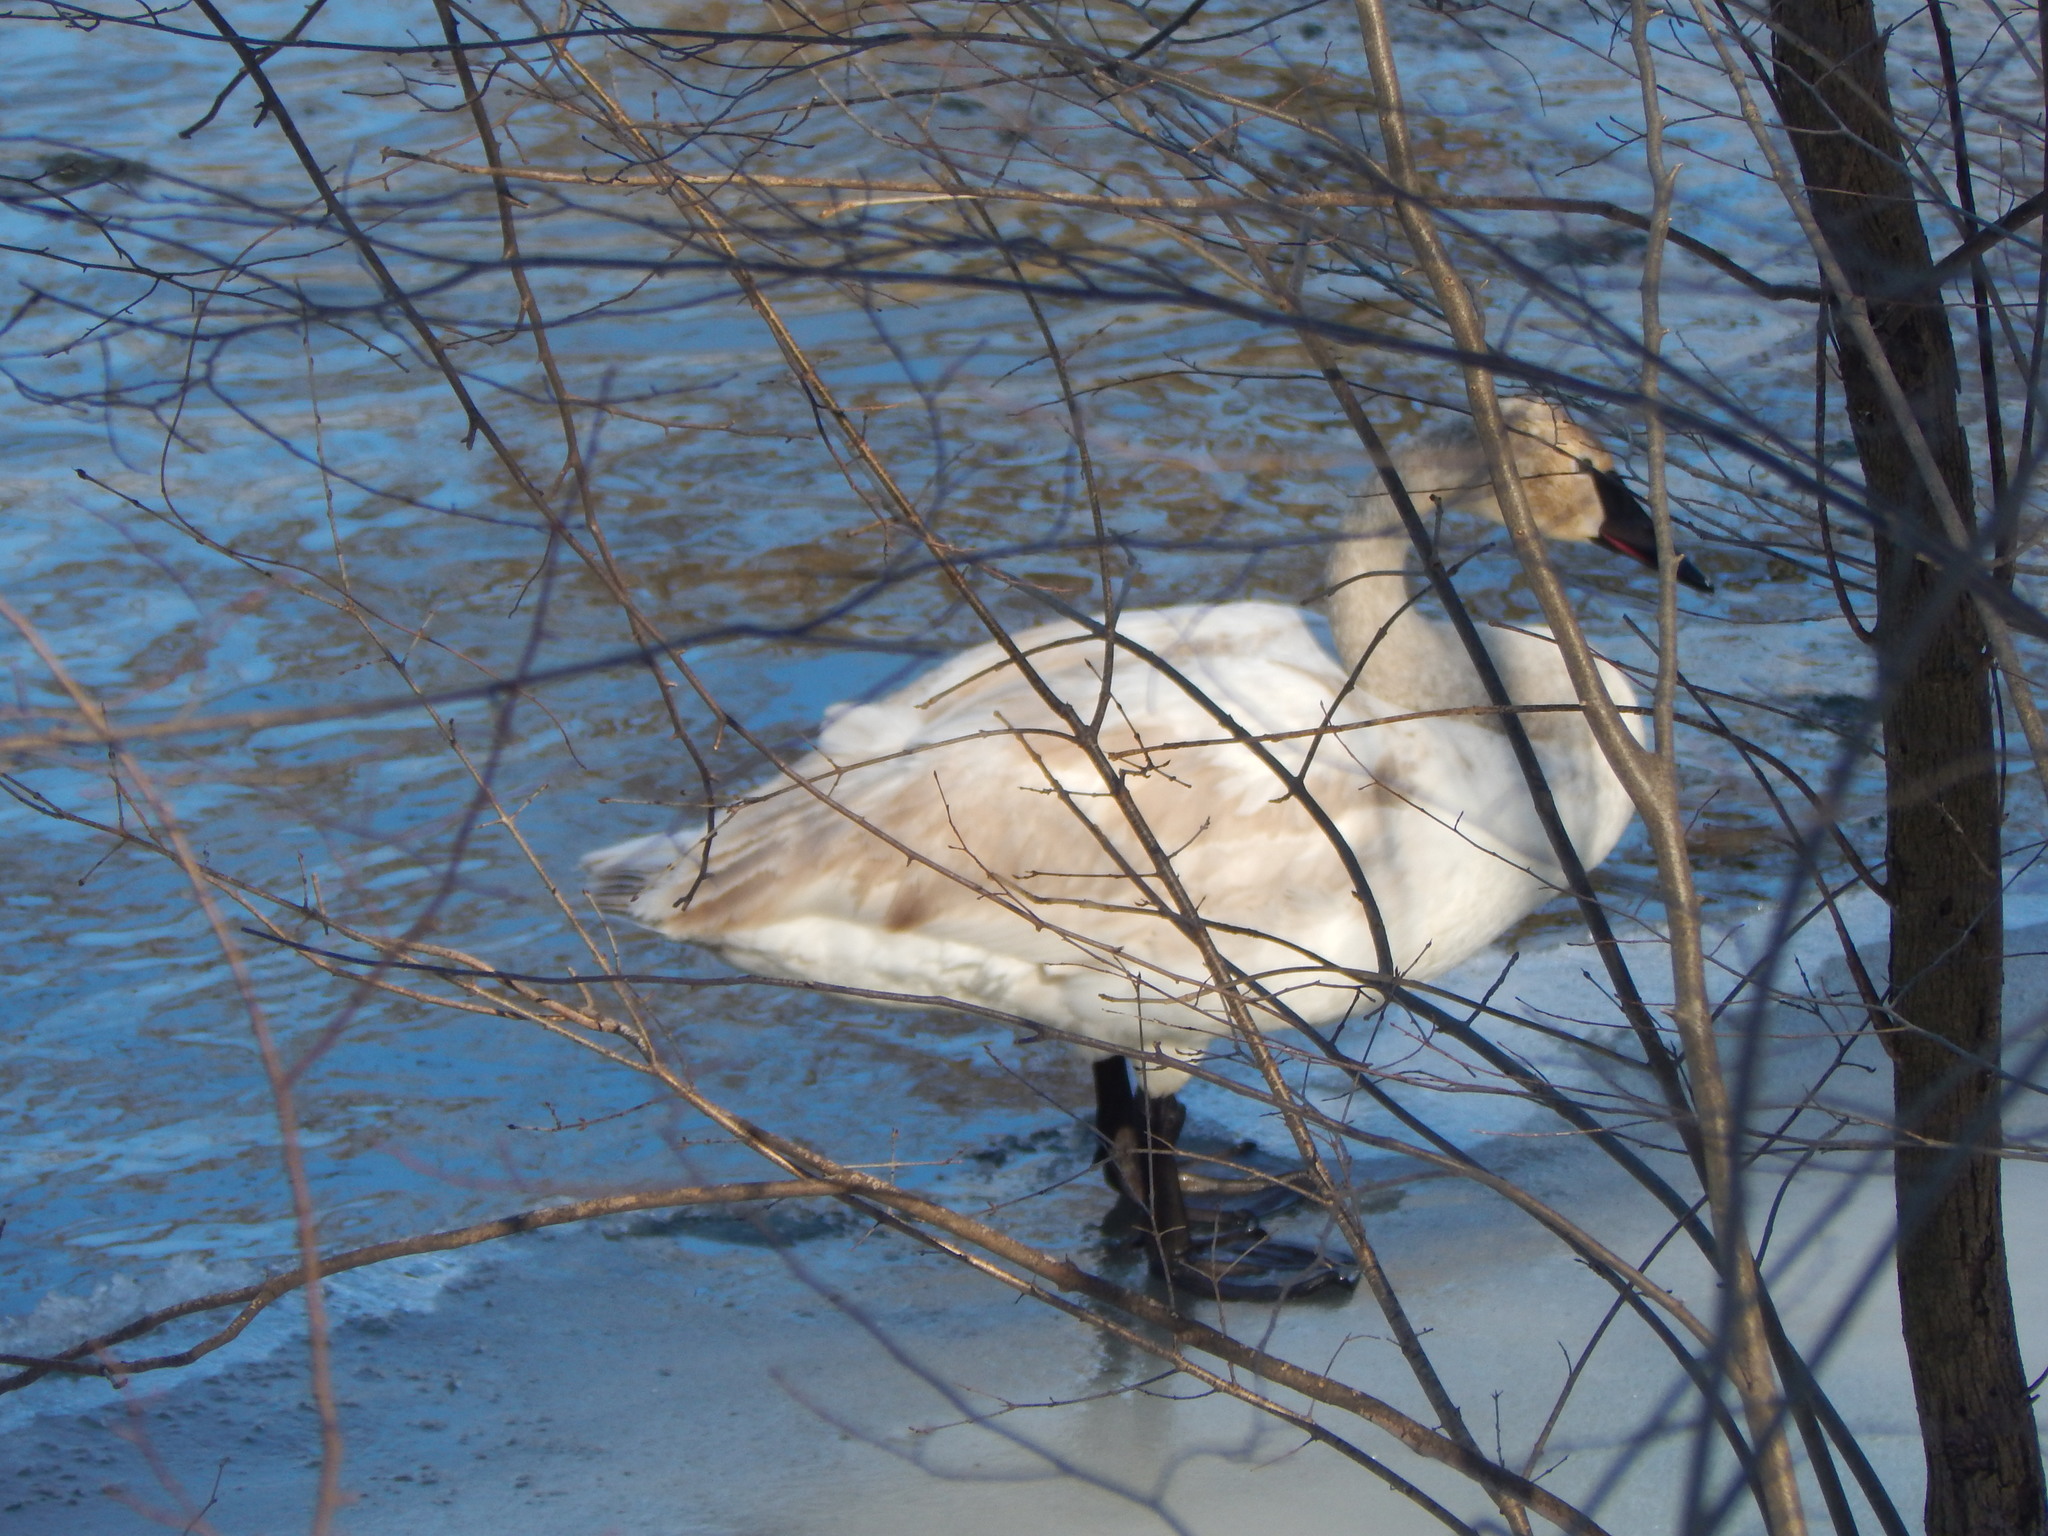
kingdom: Animalia
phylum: Chordata
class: Aves
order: Anseriformes
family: Anatidae
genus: Cygnus
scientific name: Cygnus buccinator
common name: Trumpeter swan
